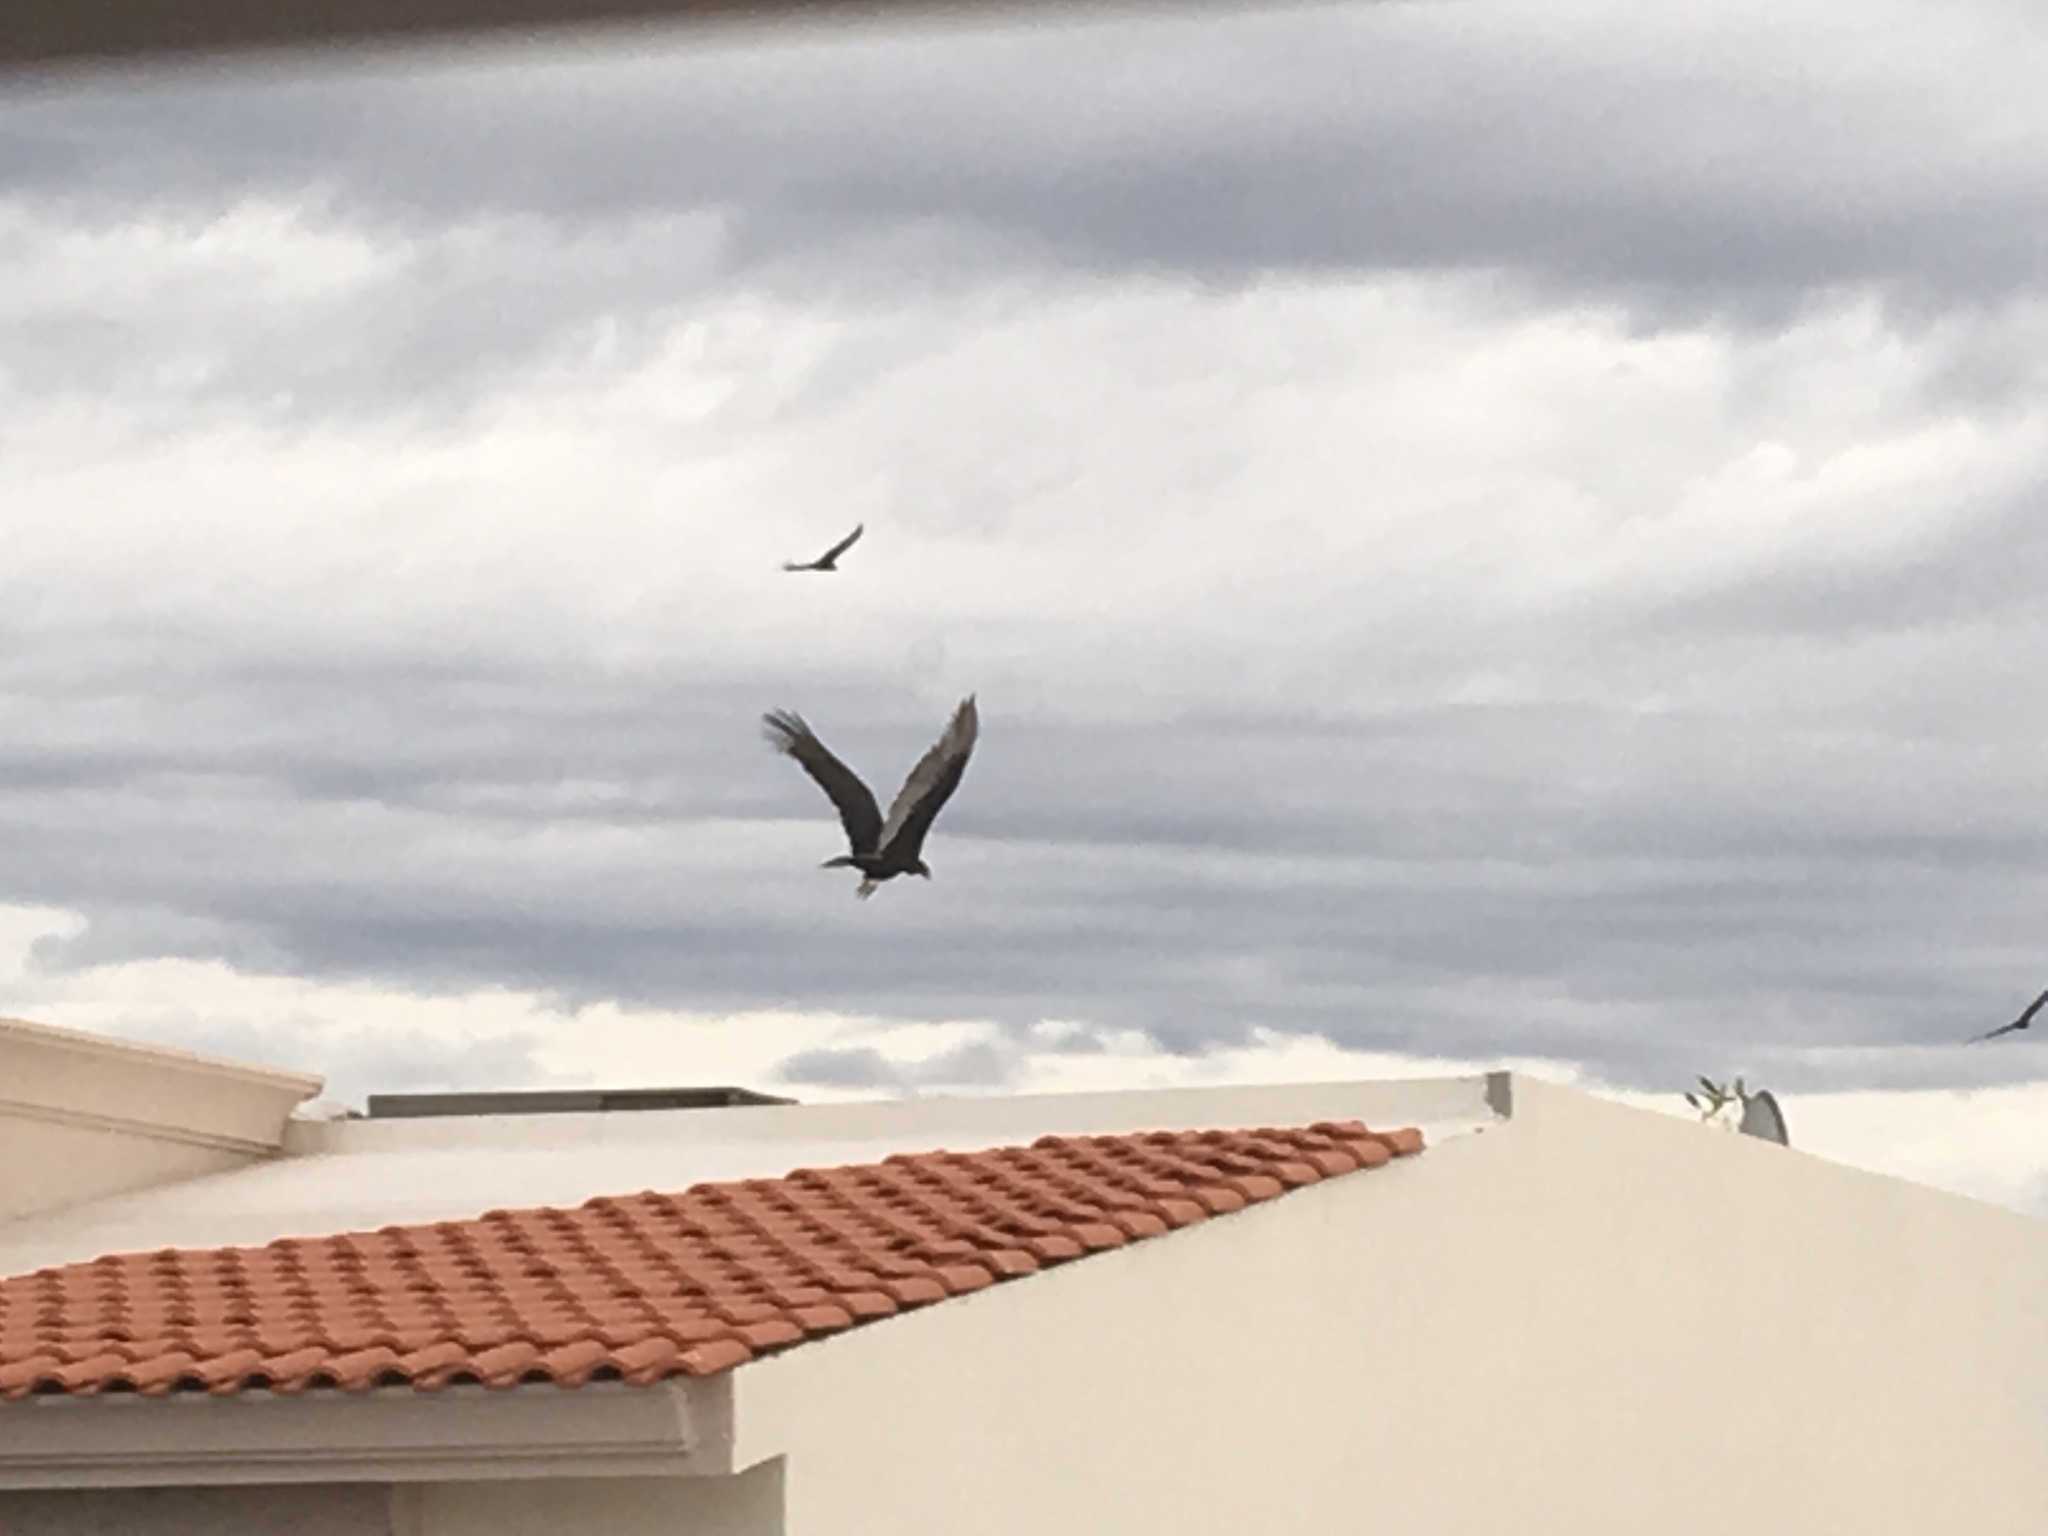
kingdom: Animalia
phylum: Chordata
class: Aves
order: Accipitriformes
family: Cathartidae
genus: Cathartes
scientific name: Cathartes aura
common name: Turkey vulture
